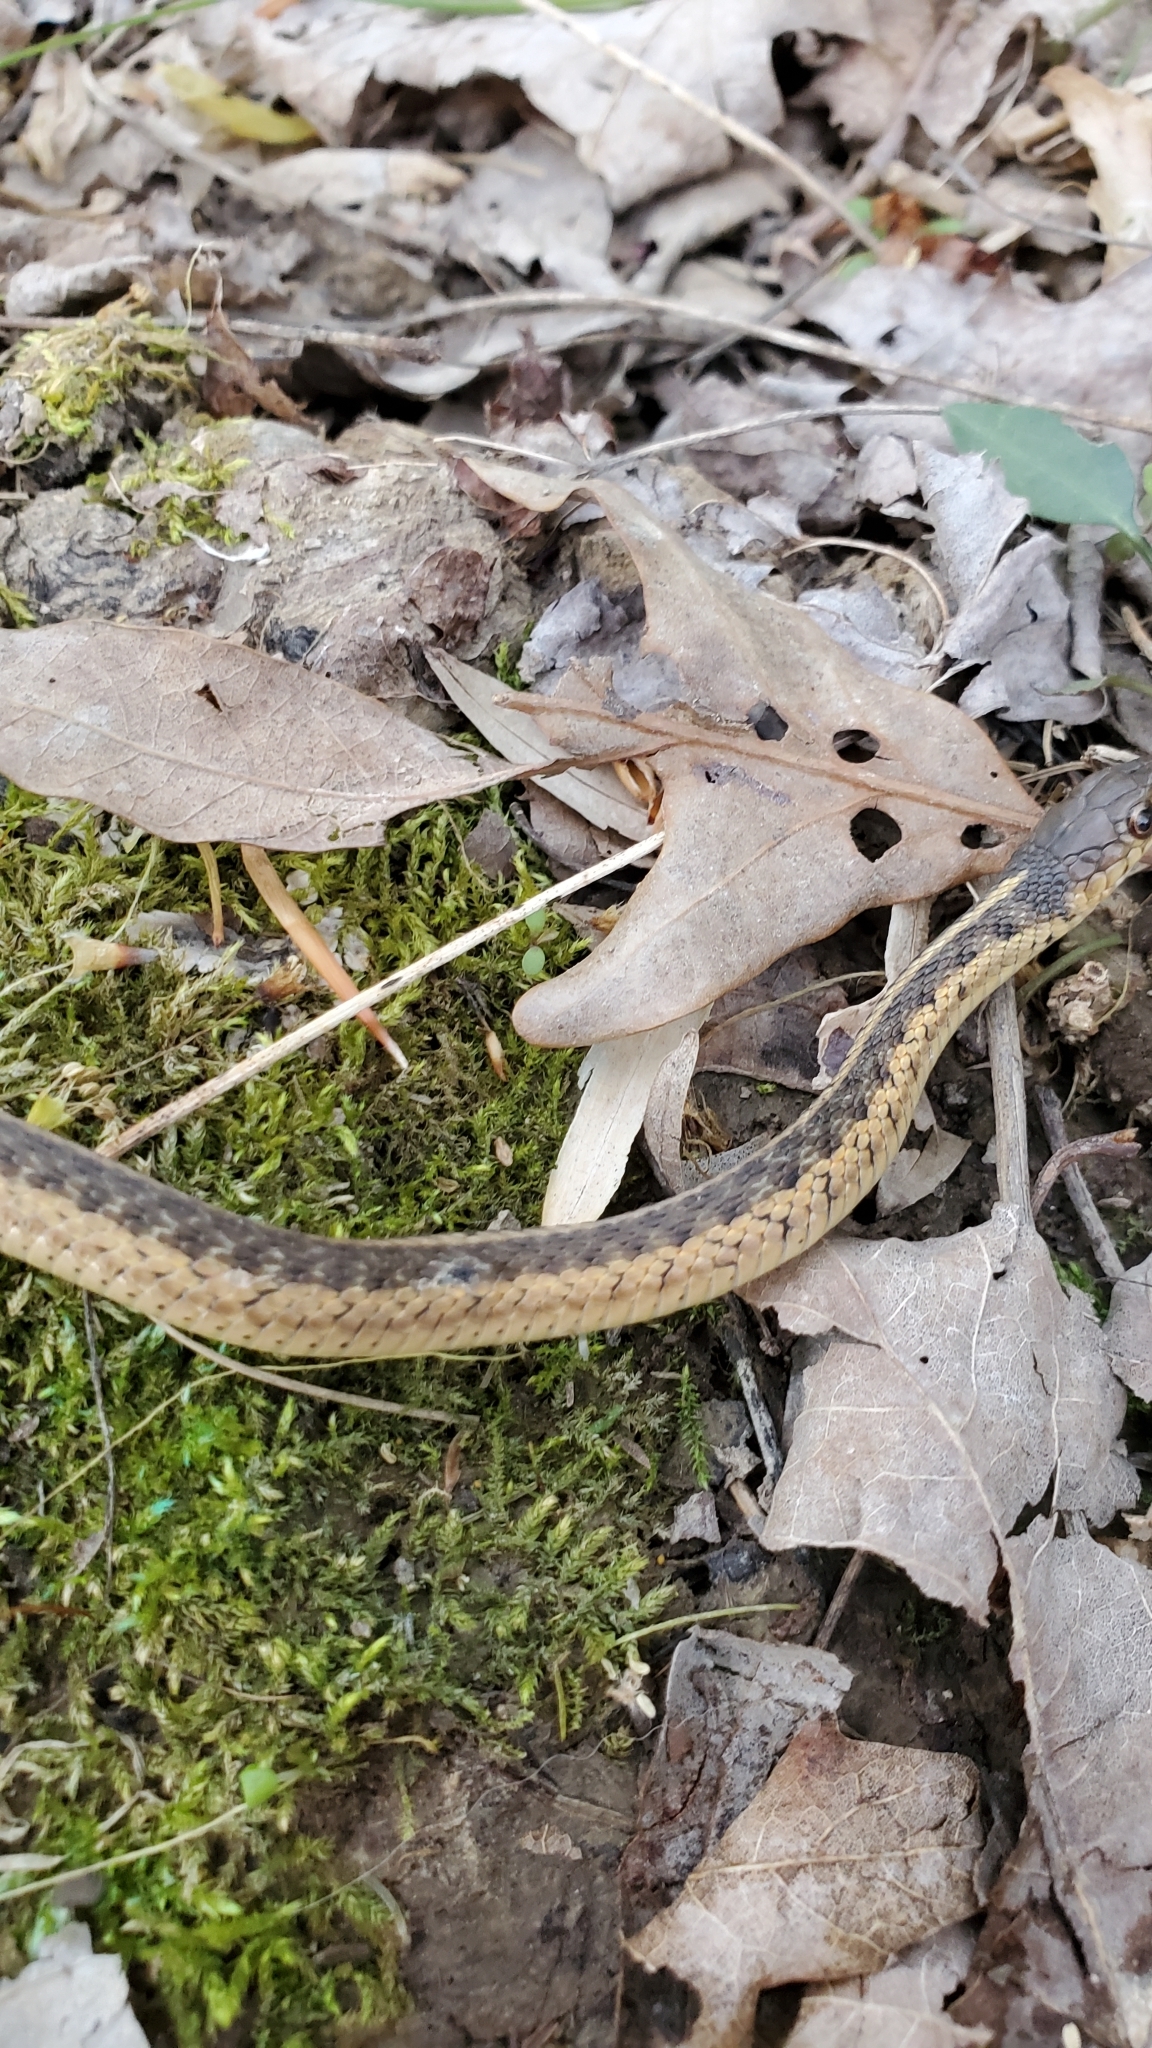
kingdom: Animalia
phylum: Chordata
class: Squamata
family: Colubridae
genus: Thamnophis
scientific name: Thamnophis sirtalis
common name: Common garter snake
